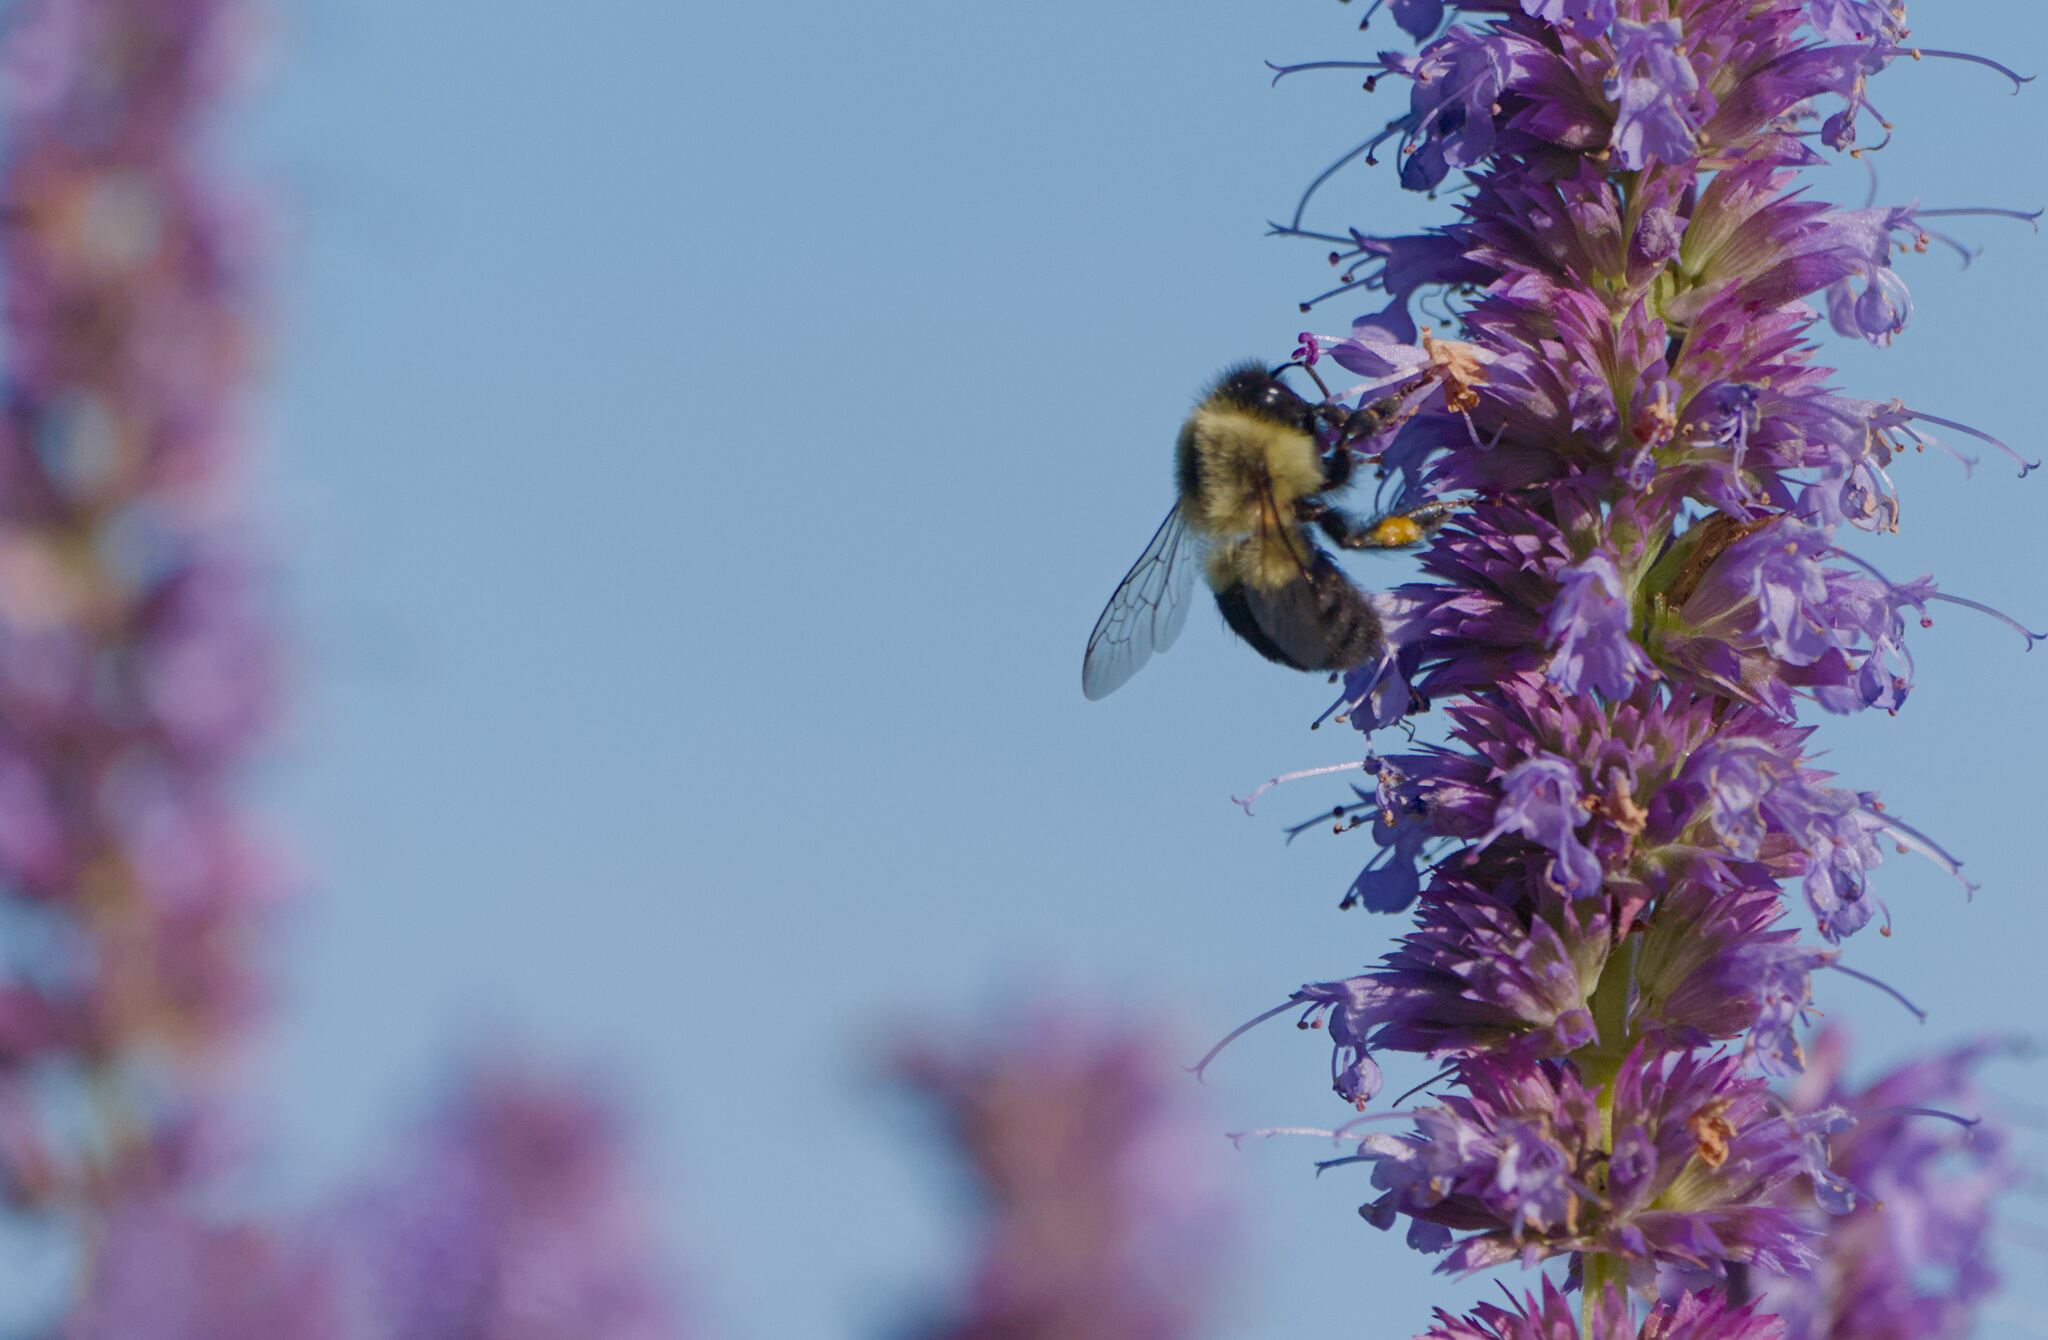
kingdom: Animalia
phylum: Arthropoda
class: Insecta
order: Hymenoptera
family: Apidae
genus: Bombus
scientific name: Bombus impatiens
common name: Common eastern bumble bee
